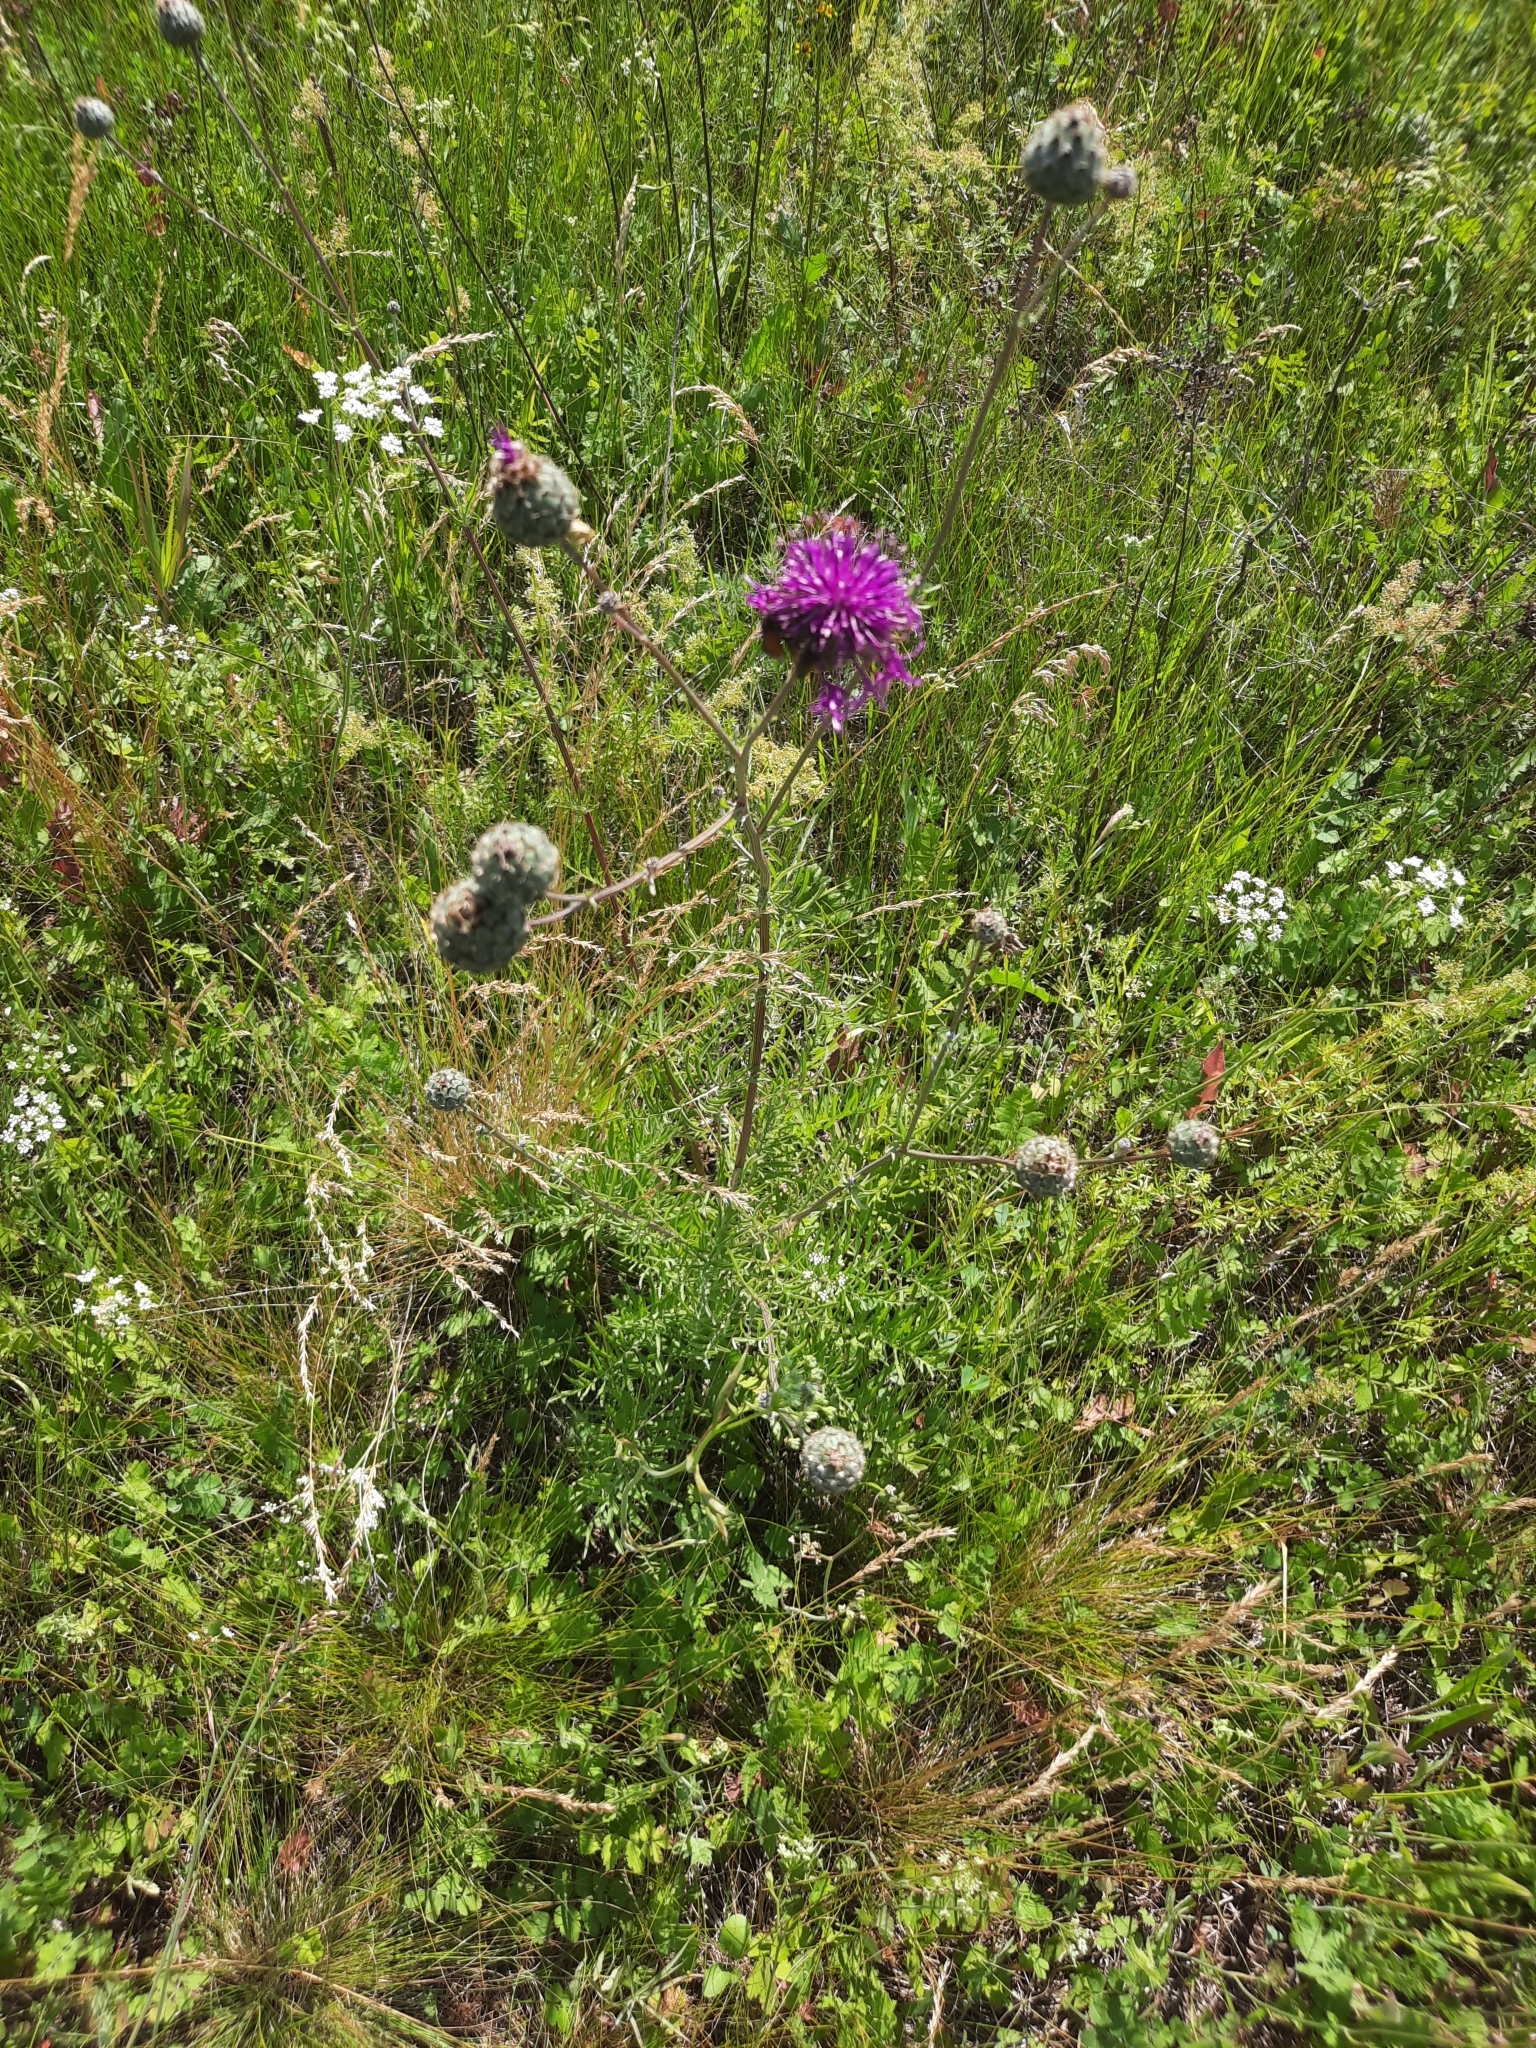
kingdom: Plantae
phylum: Tracheophyta
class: Magnoliopsida
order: Asterales
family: Asteraceae
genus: Centaurea
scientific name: Centaurea scabiosa
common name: Greater knapweed
